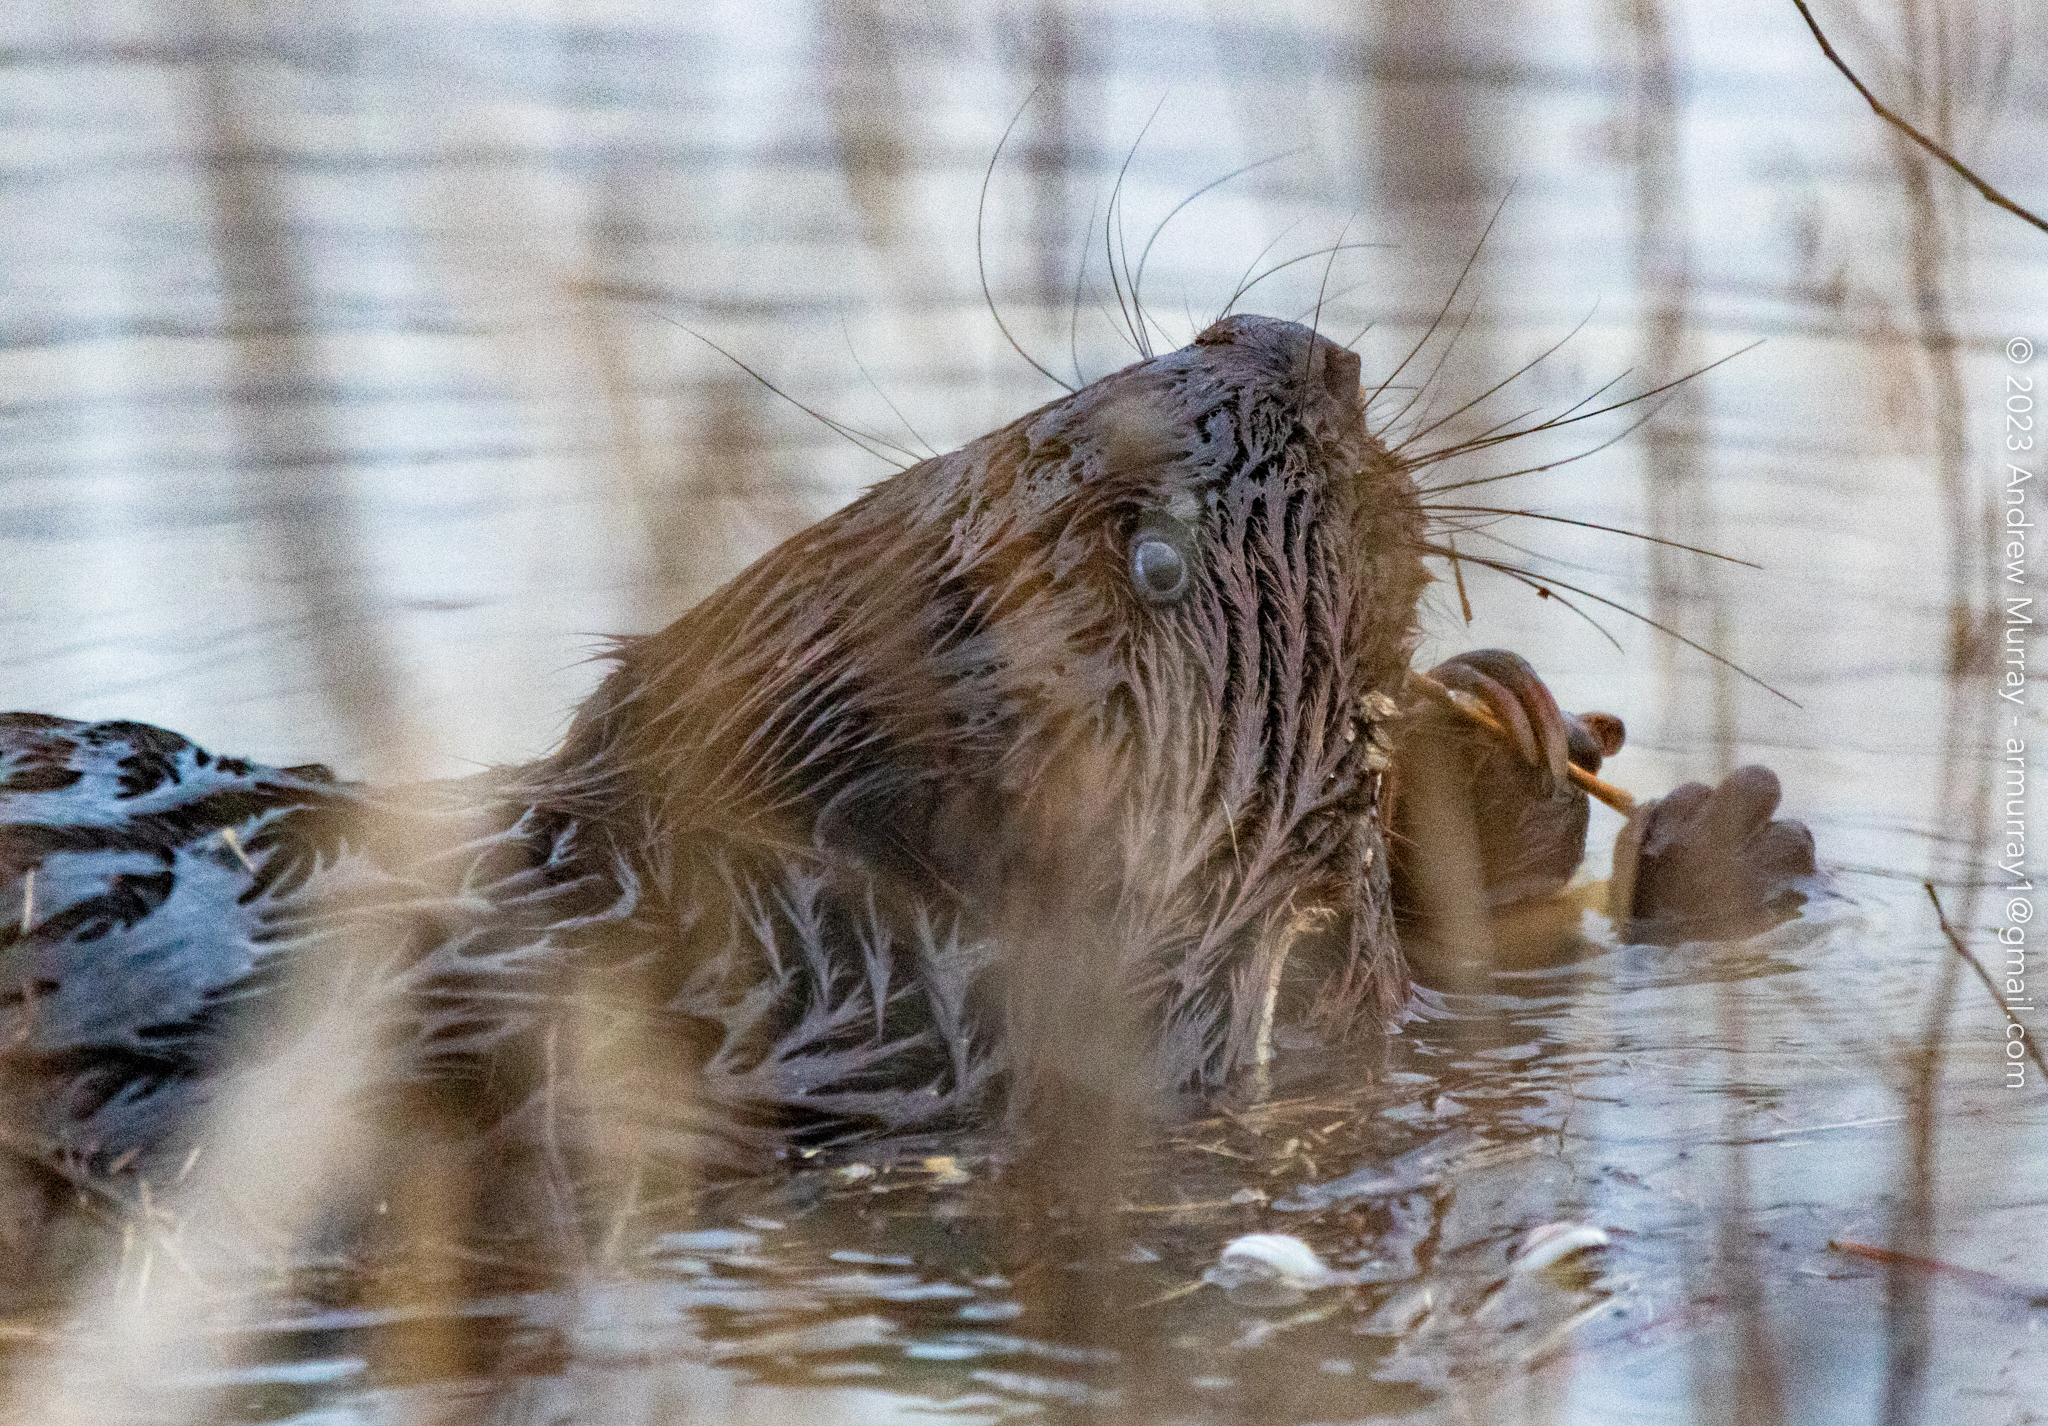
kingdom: Animalia
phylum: Chordata
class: Mammalia
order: Rodentia
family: Castoridae
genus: Castor
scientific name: Castor canadensis
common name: American beaver
